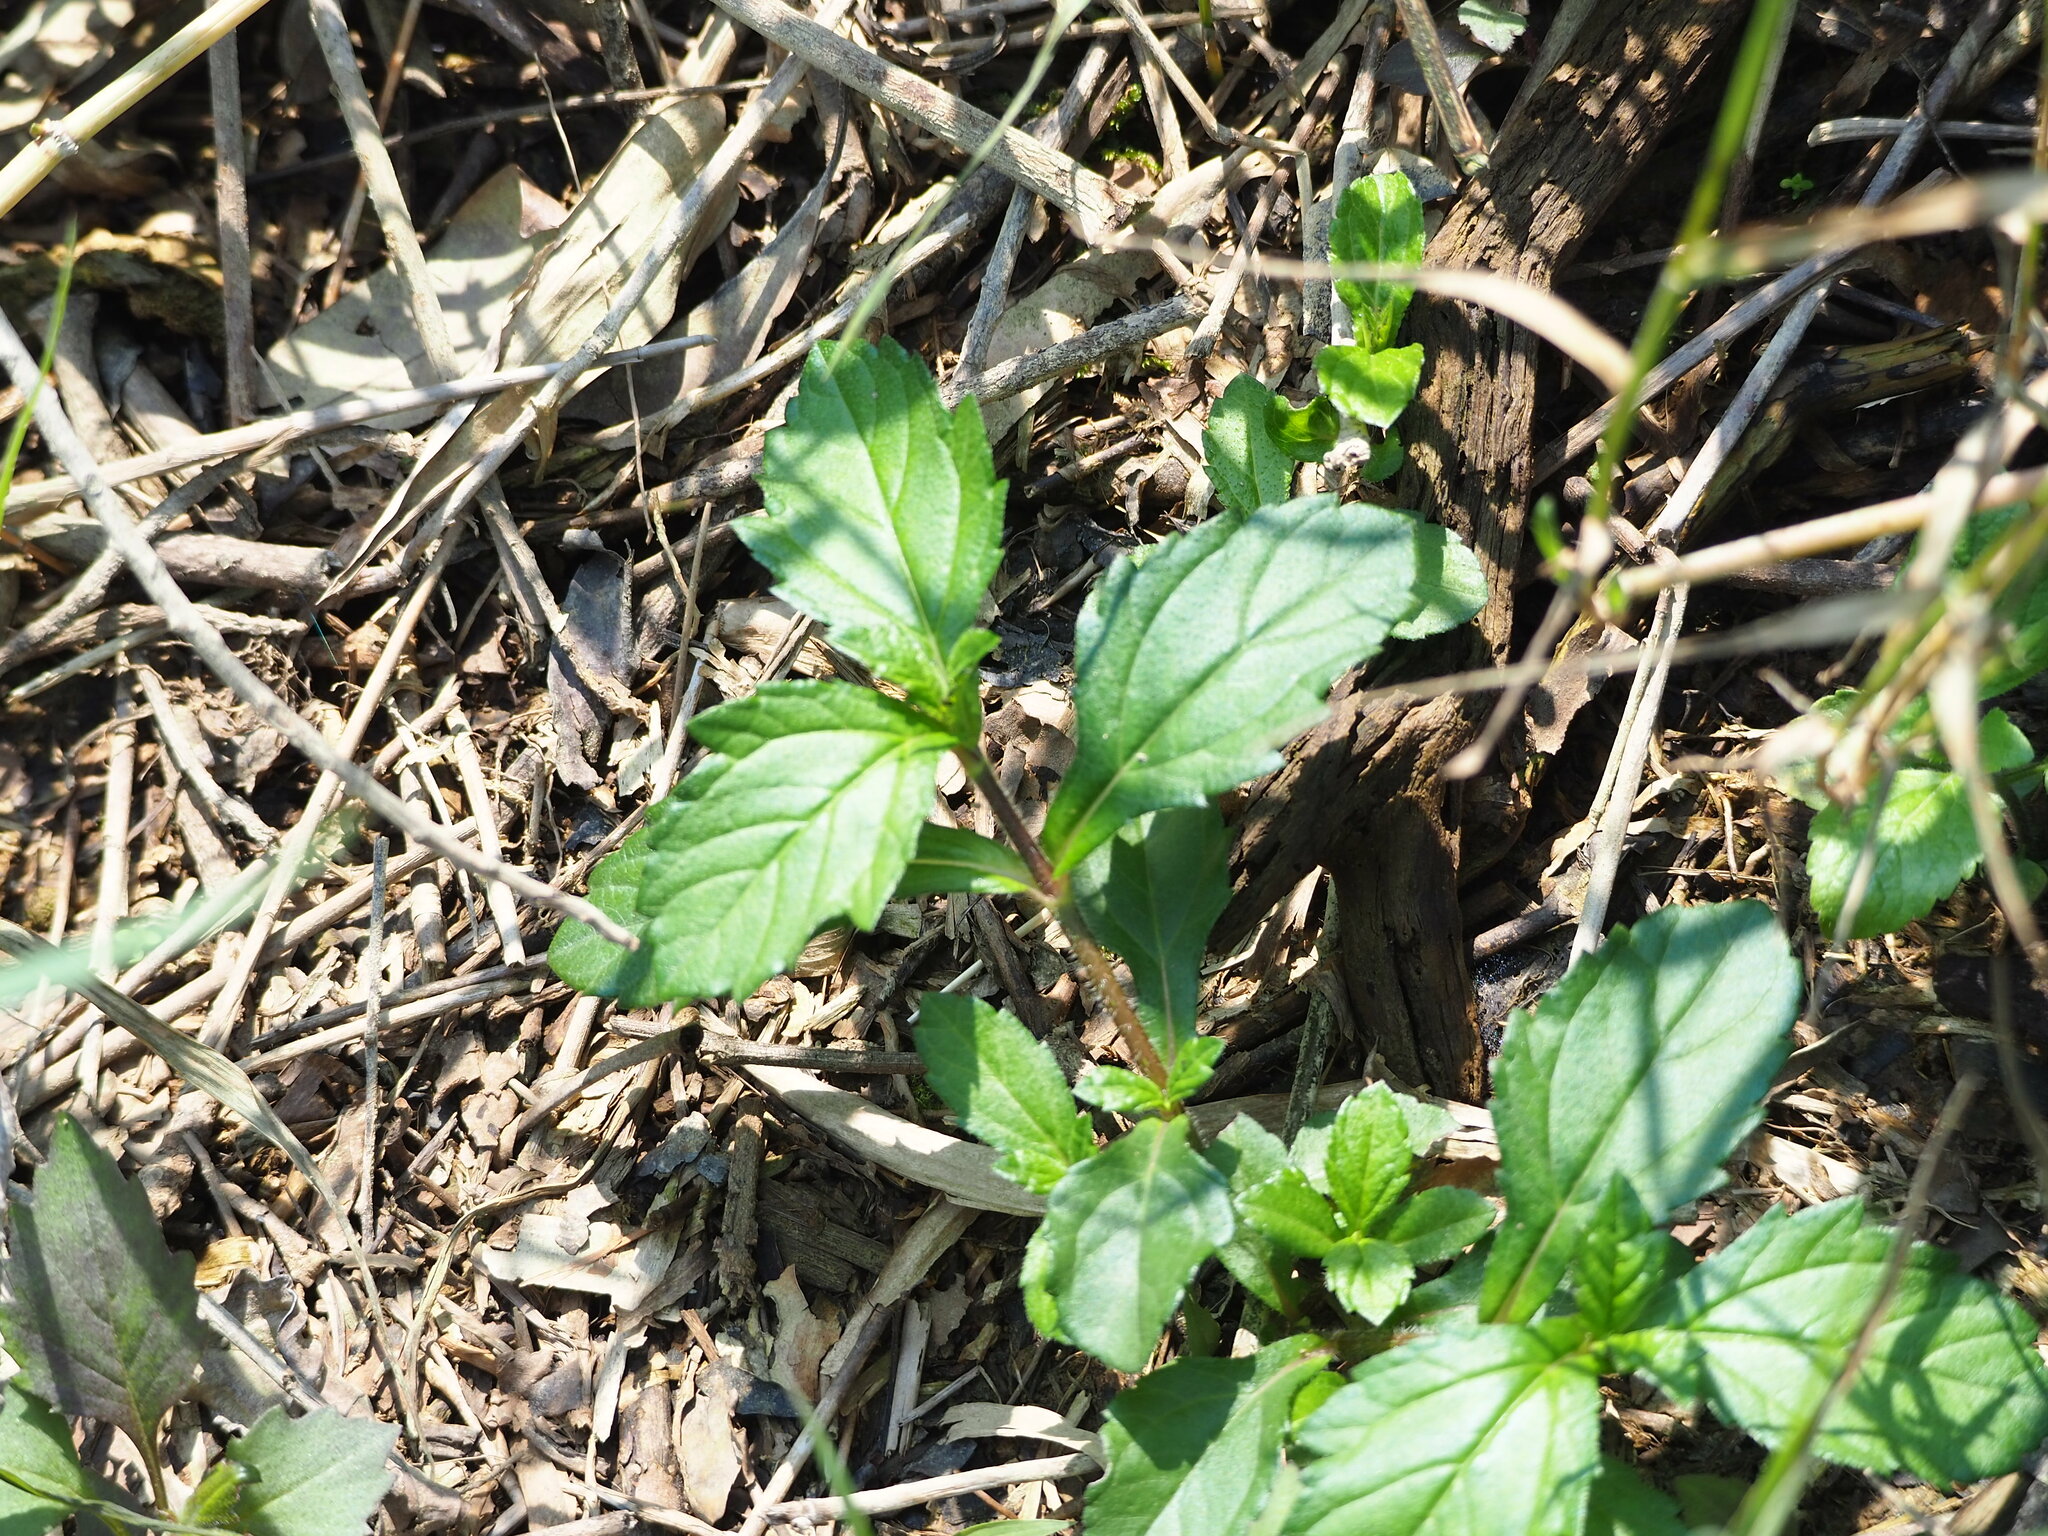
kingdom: Plantae
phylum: Tracheophyta
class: Magnoliopsida
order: Asterales
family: Asteraceae
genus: Sphagneticola
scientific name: Sphagneticola trilobata
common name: Bay biscayne creeping-oxeye
